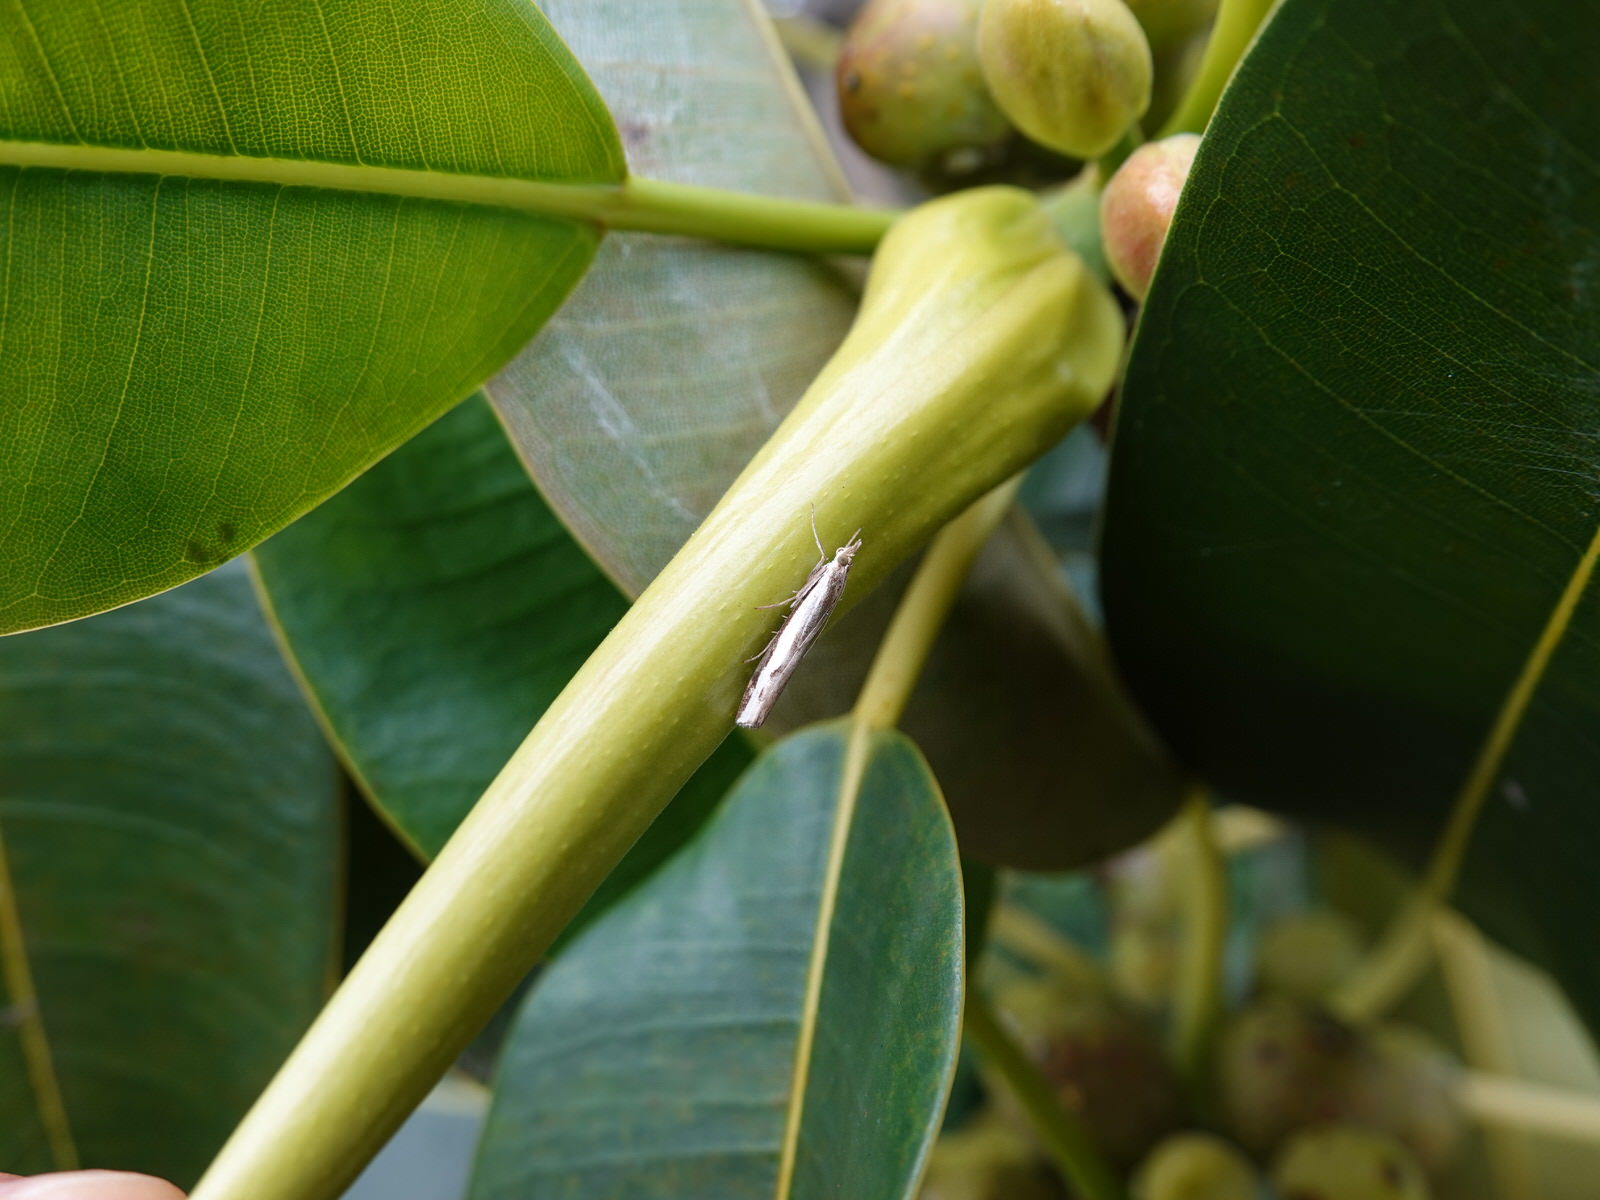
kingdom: Animalia
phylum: Arthropoda
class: Insecta
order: Lepidoptera
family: Crambidae
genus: Orocrambus
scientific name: Orocrambus flexuosellus
